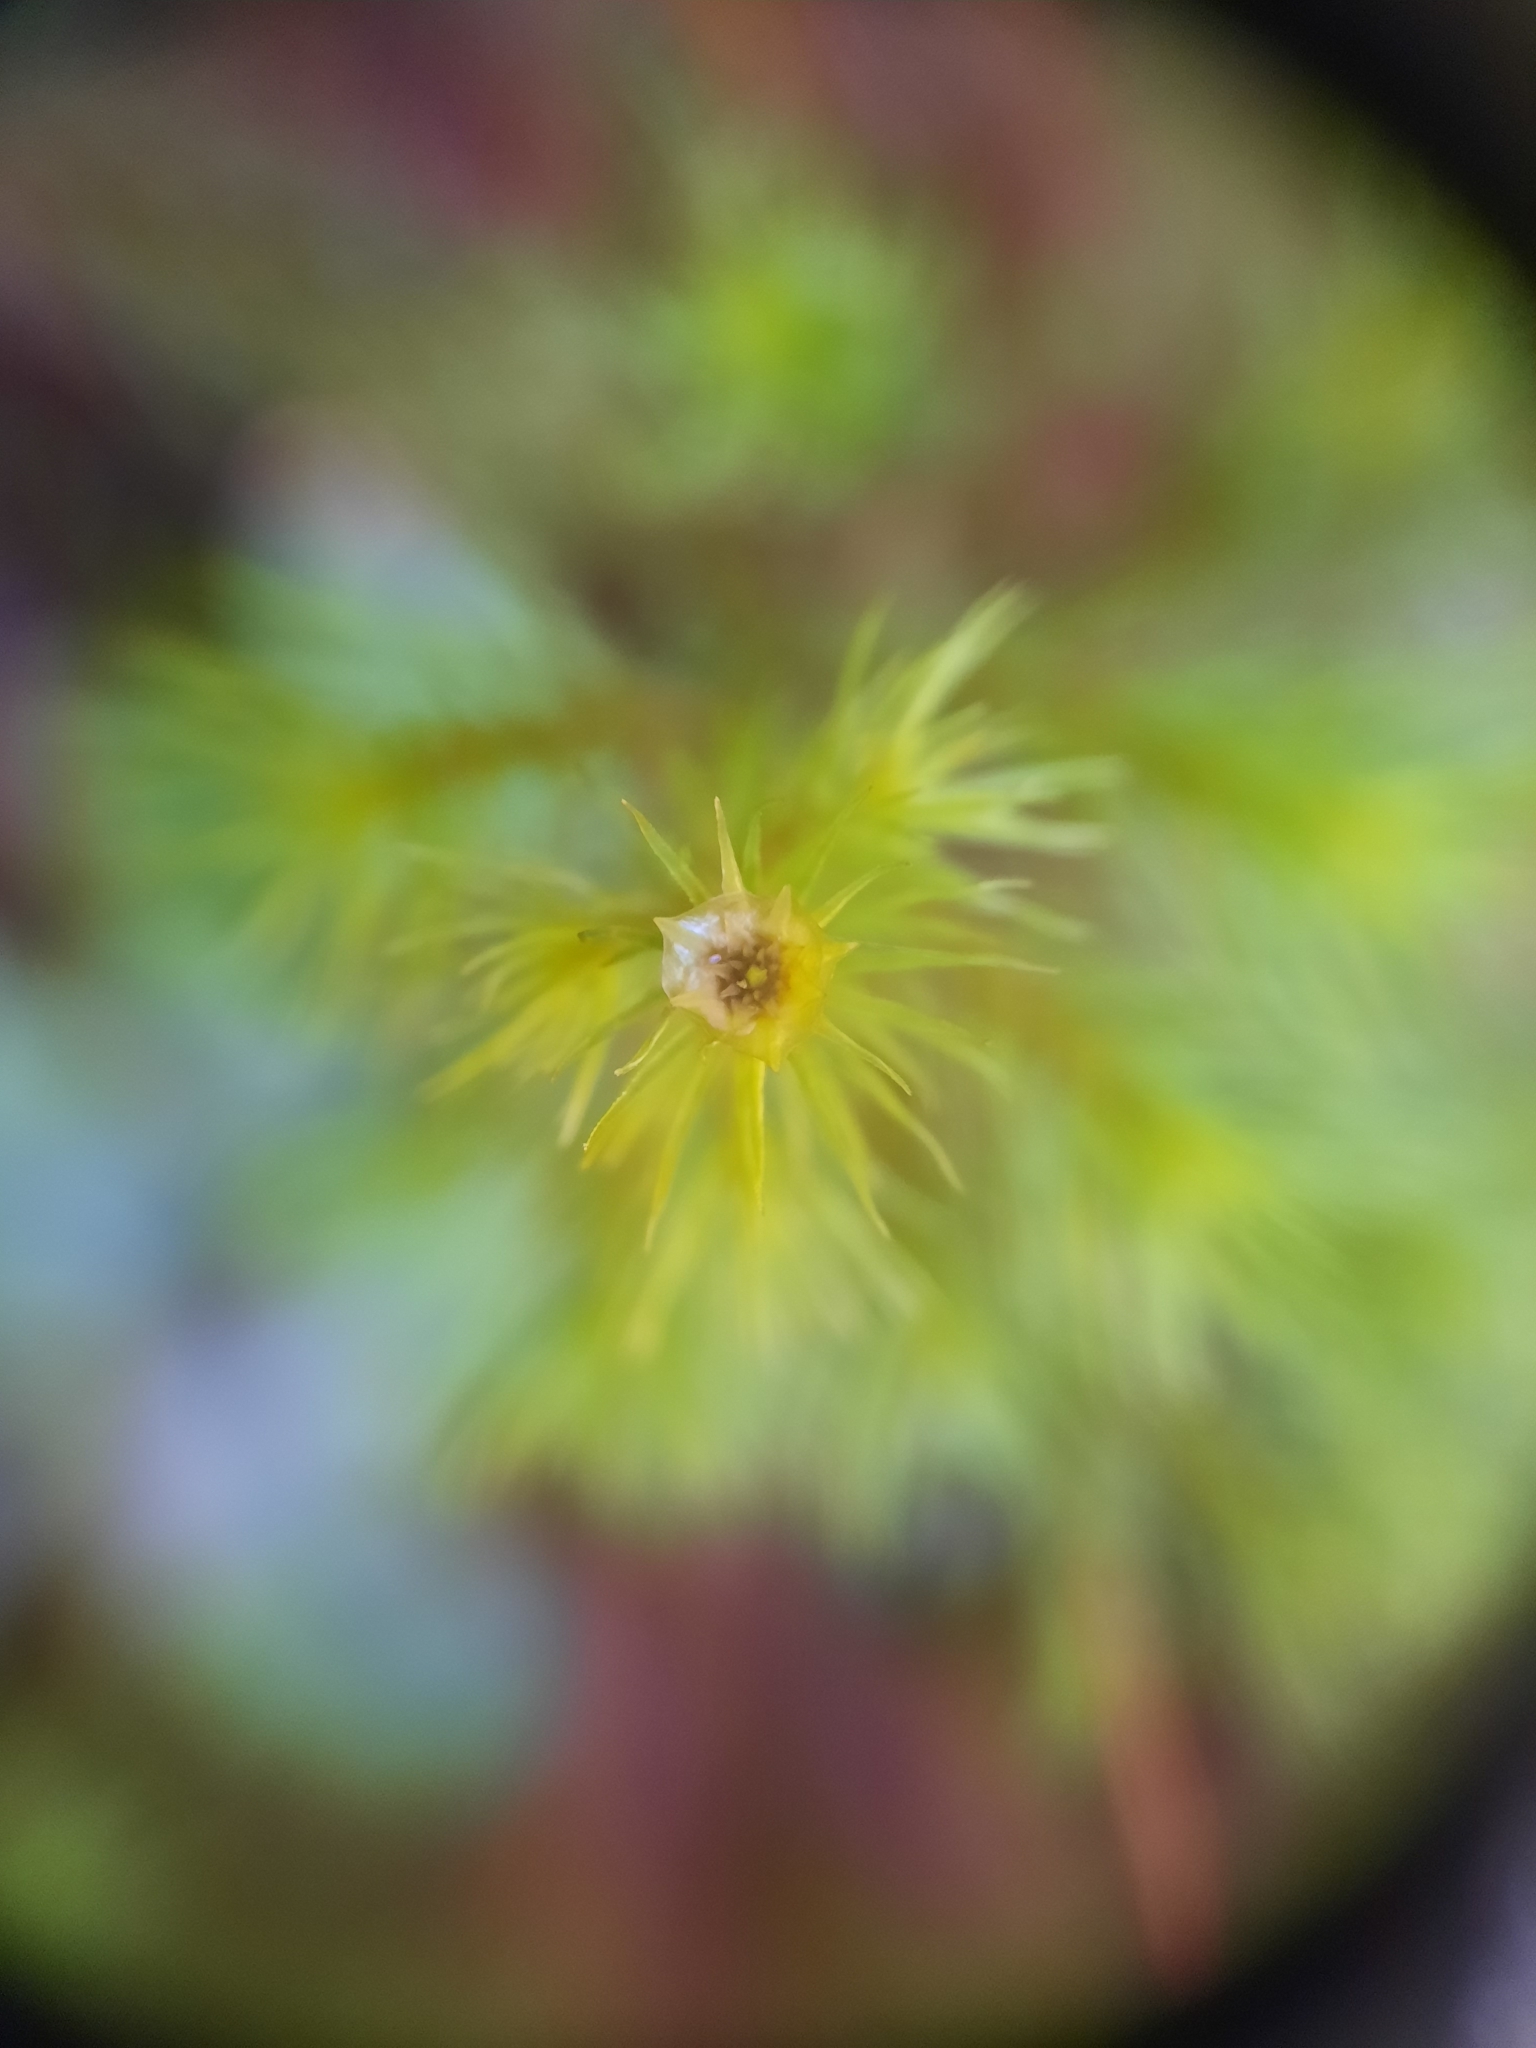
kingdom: Plantae
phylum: Bryophyta
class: Polytrichopsida
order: Polytrichales
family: Polytrichaceae
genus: Dendroligotrichum
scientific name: Dendroligotrichum tongariroense
